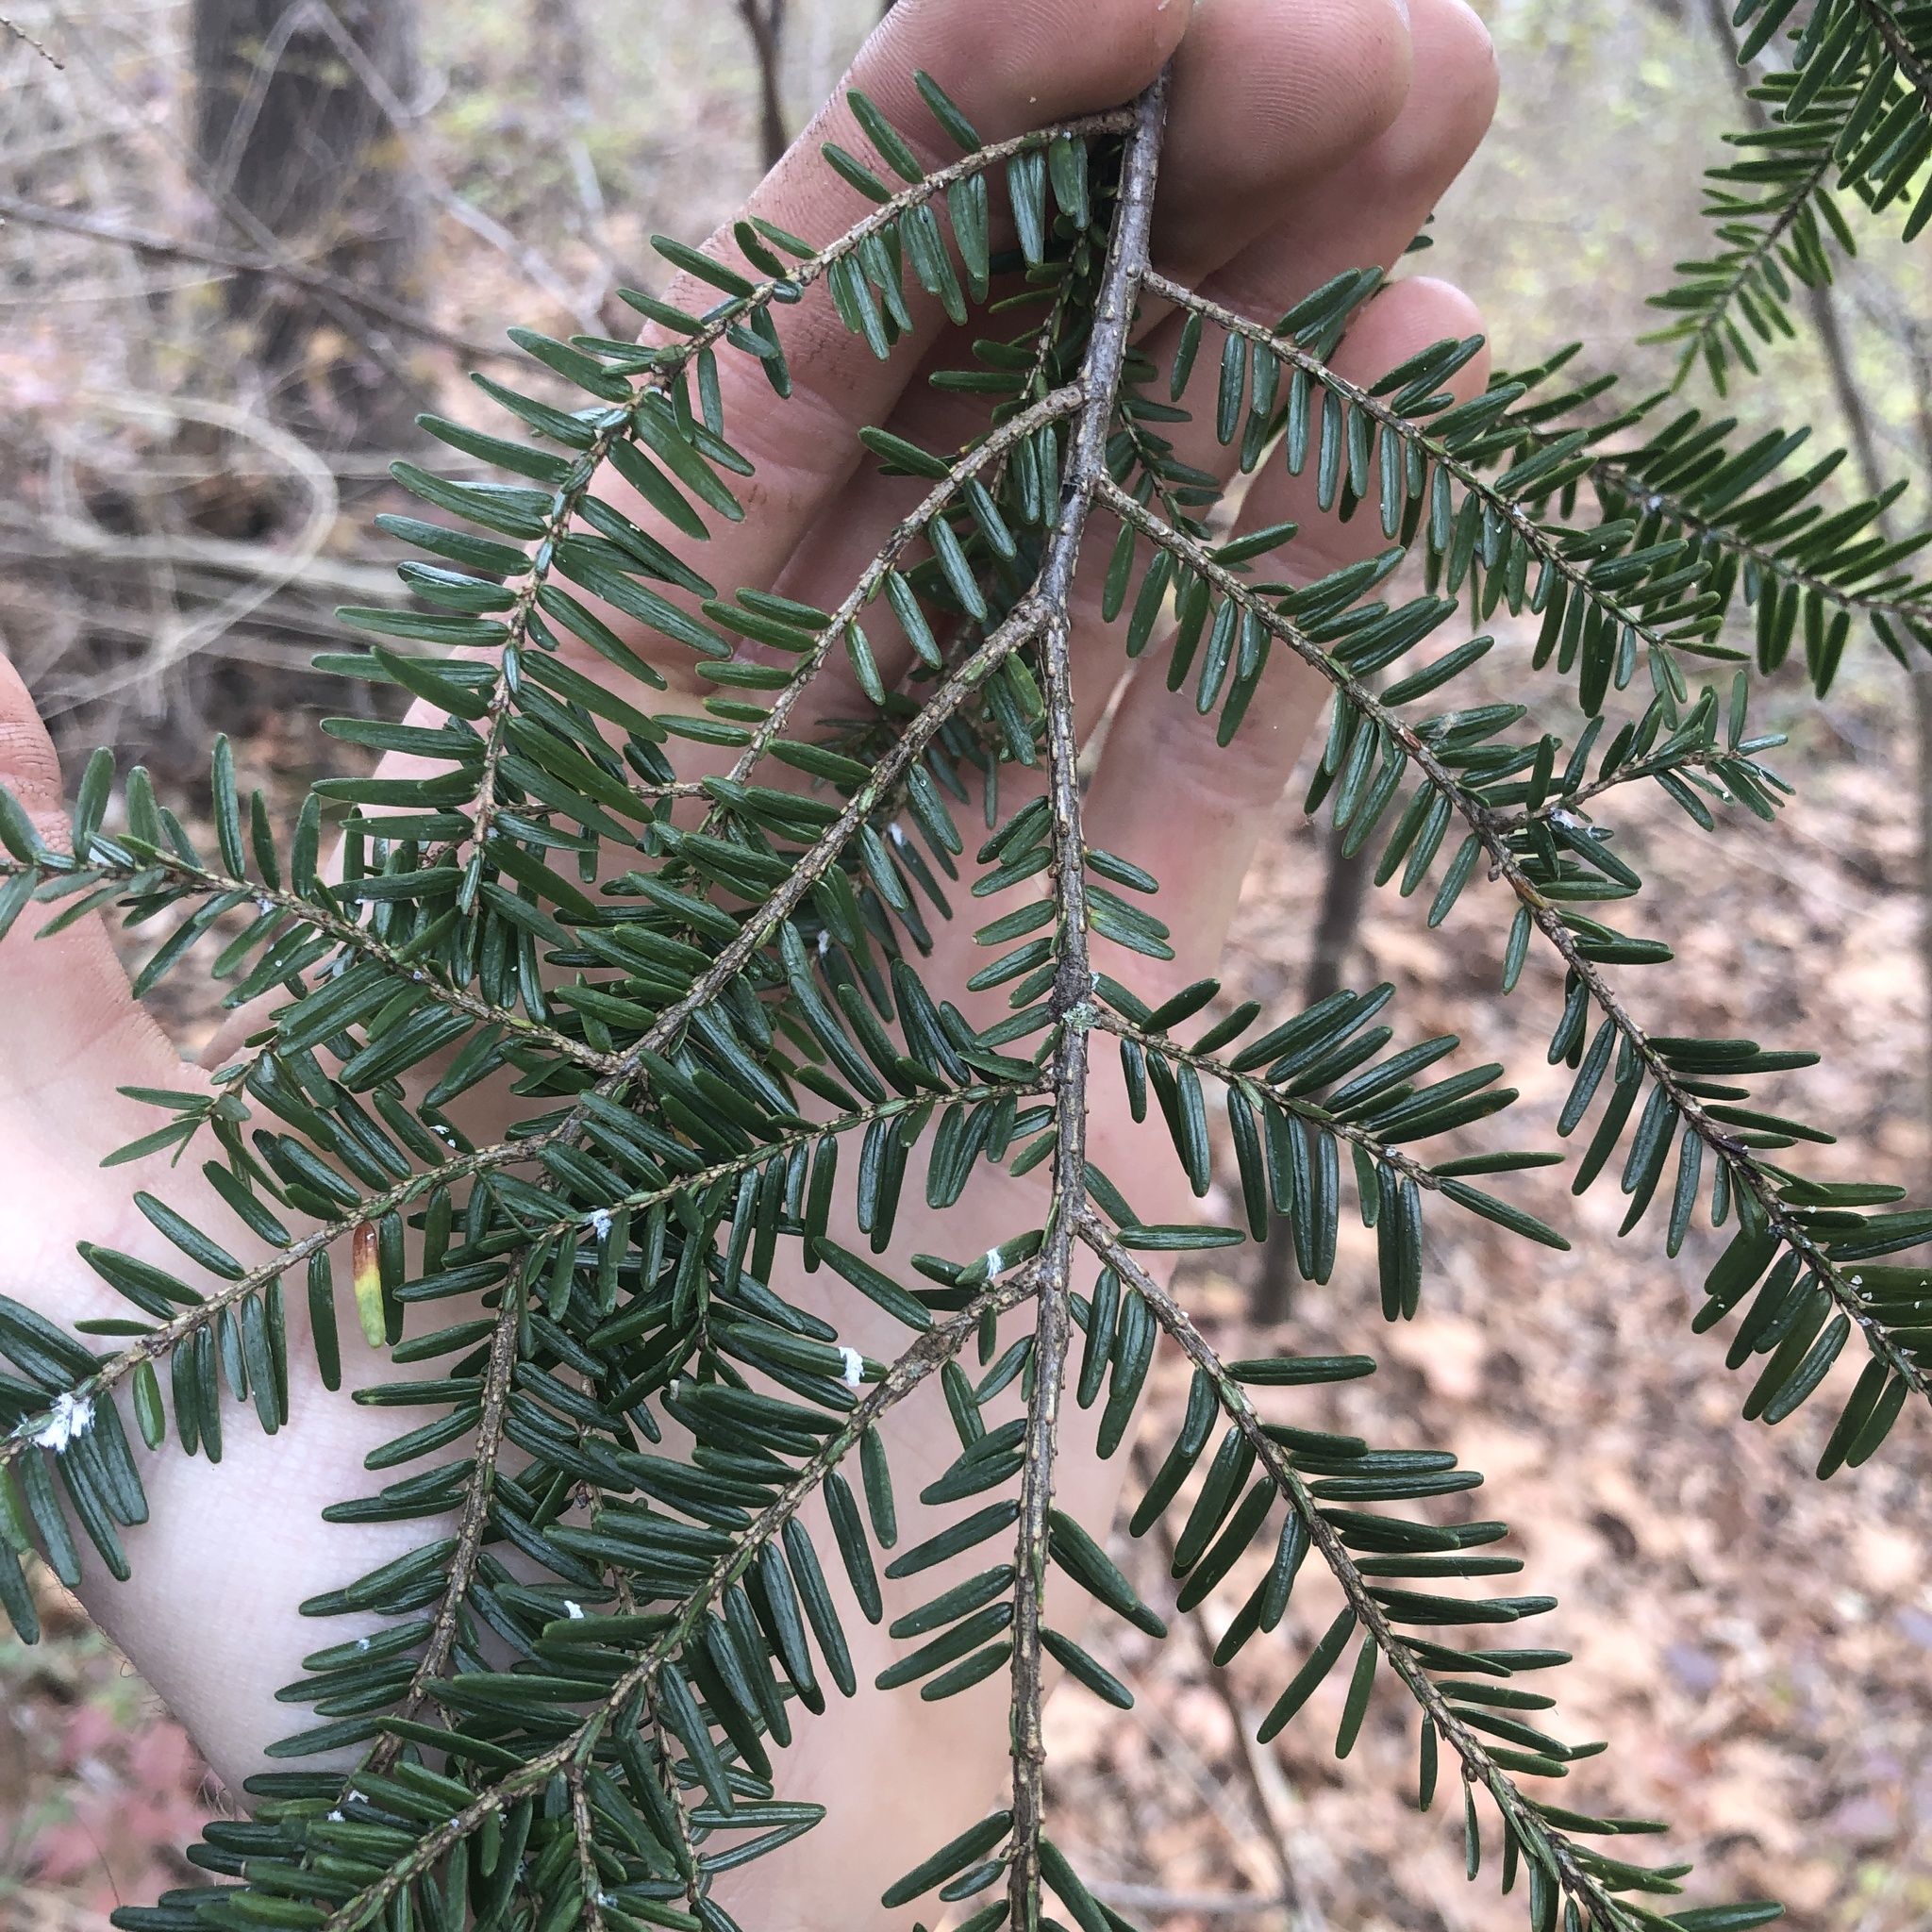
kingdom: Plantae
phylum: Tracheophyta
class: Pinopsida
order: Pinales
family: Pinaceae
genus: Tsuga
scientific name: Tsuga canadensis
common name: Eastern hemlock
